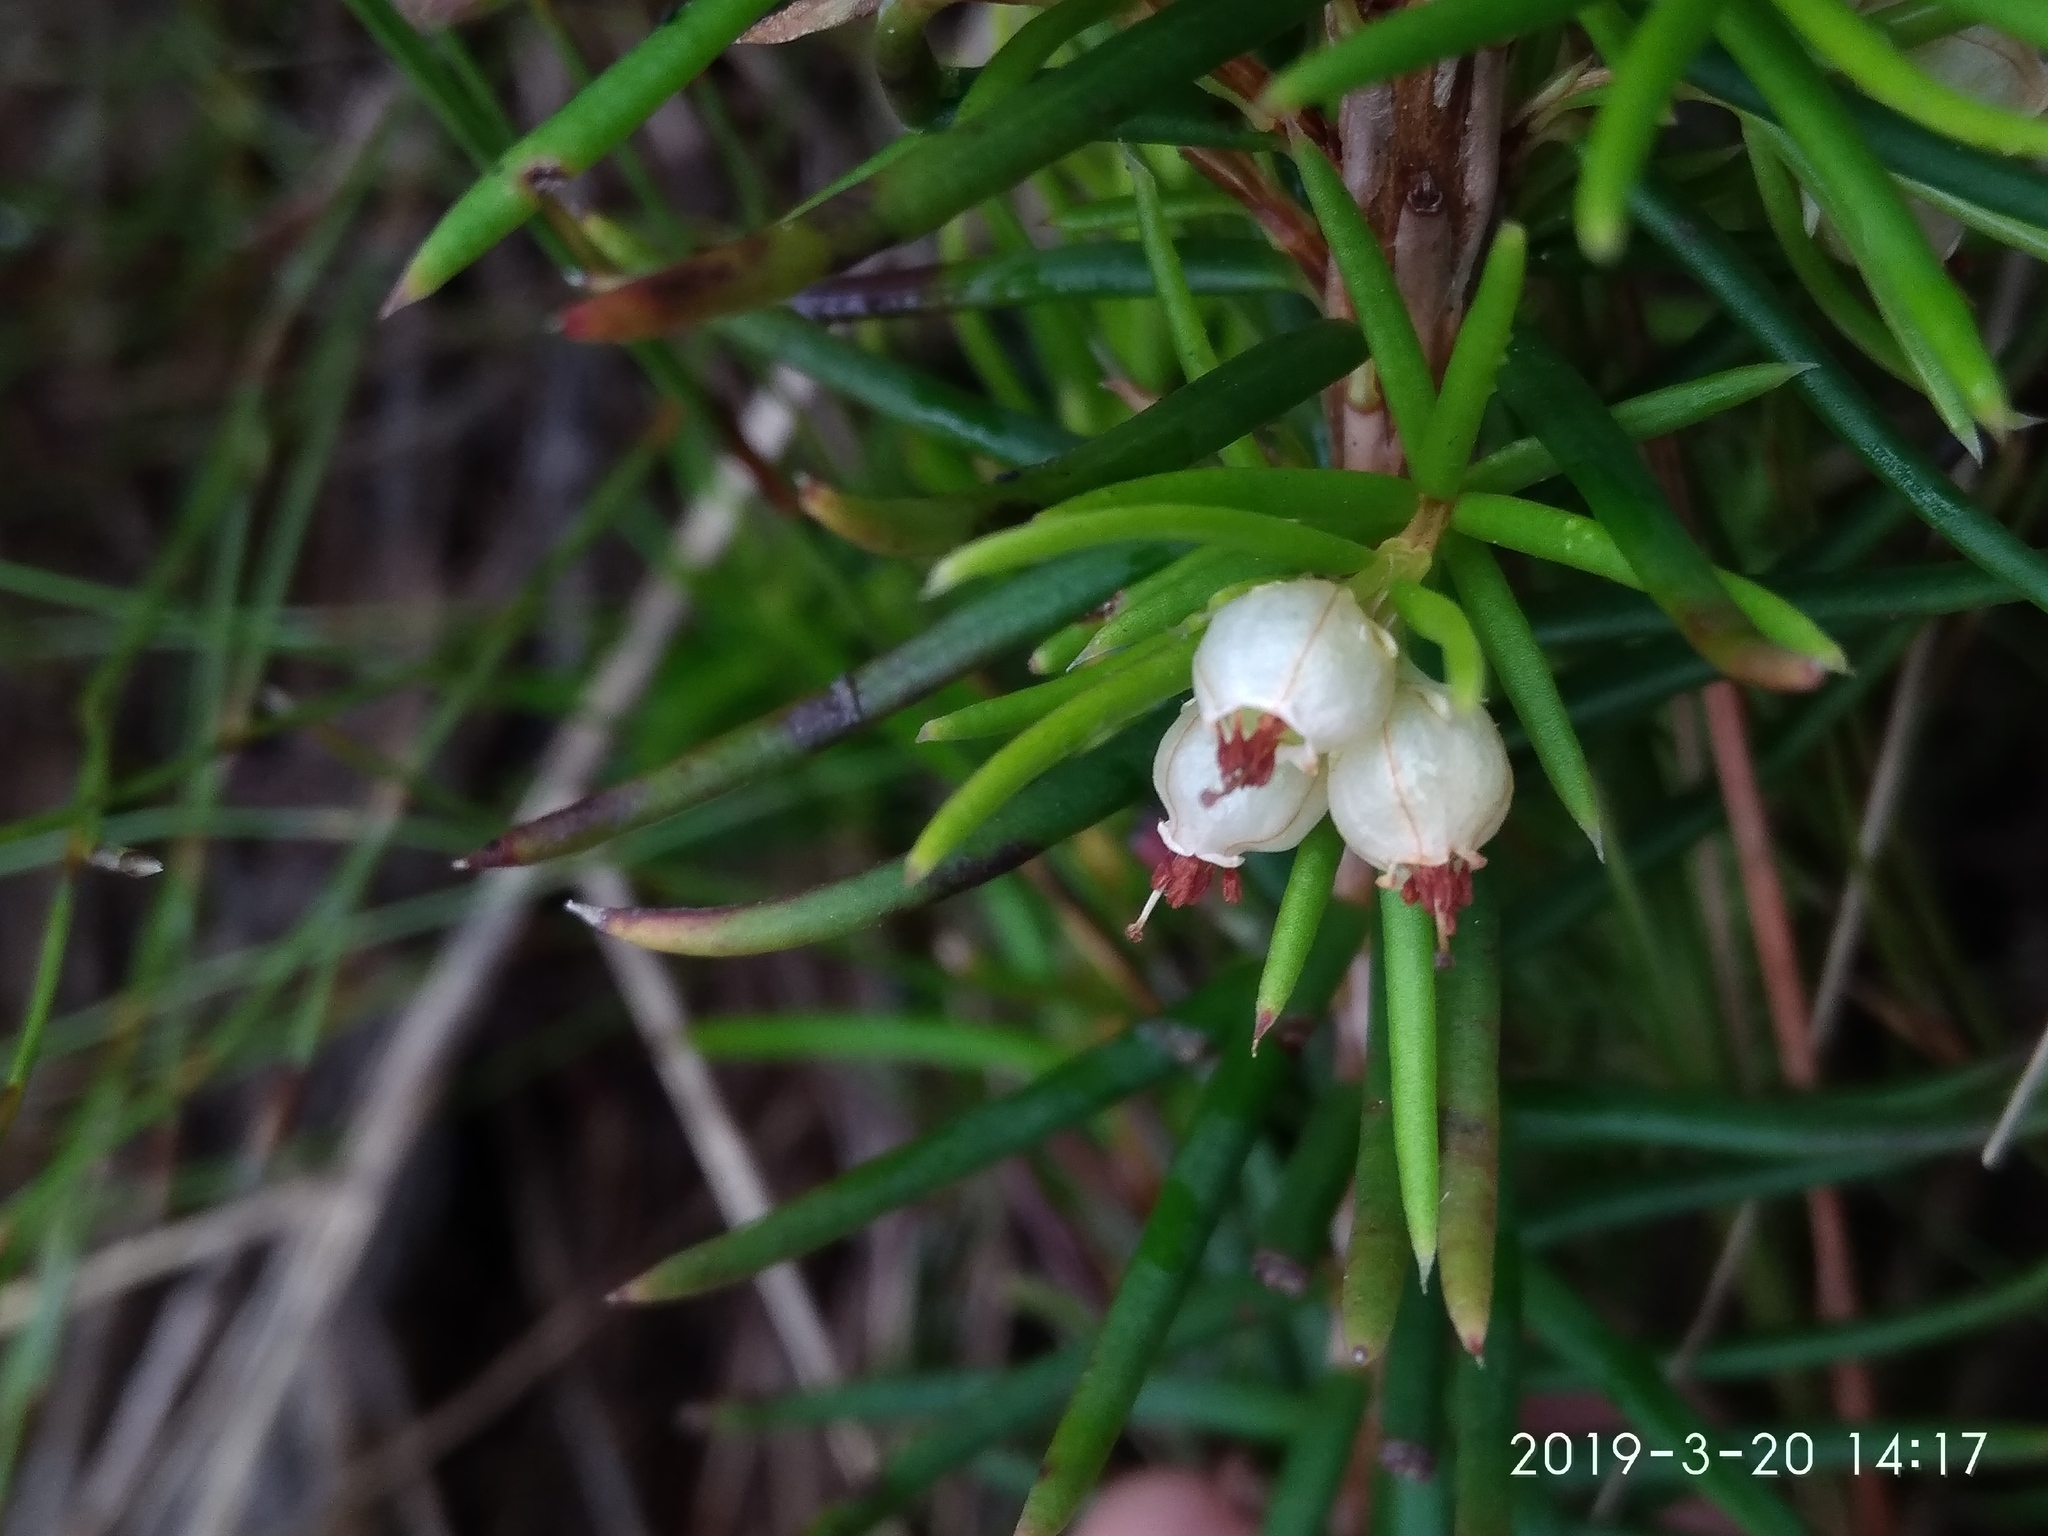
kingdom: Plantae
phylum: Tracheophyta
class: Magnoliopsida
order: Ericales
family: Ericaceae
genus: Erica
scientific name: Erica conferta
